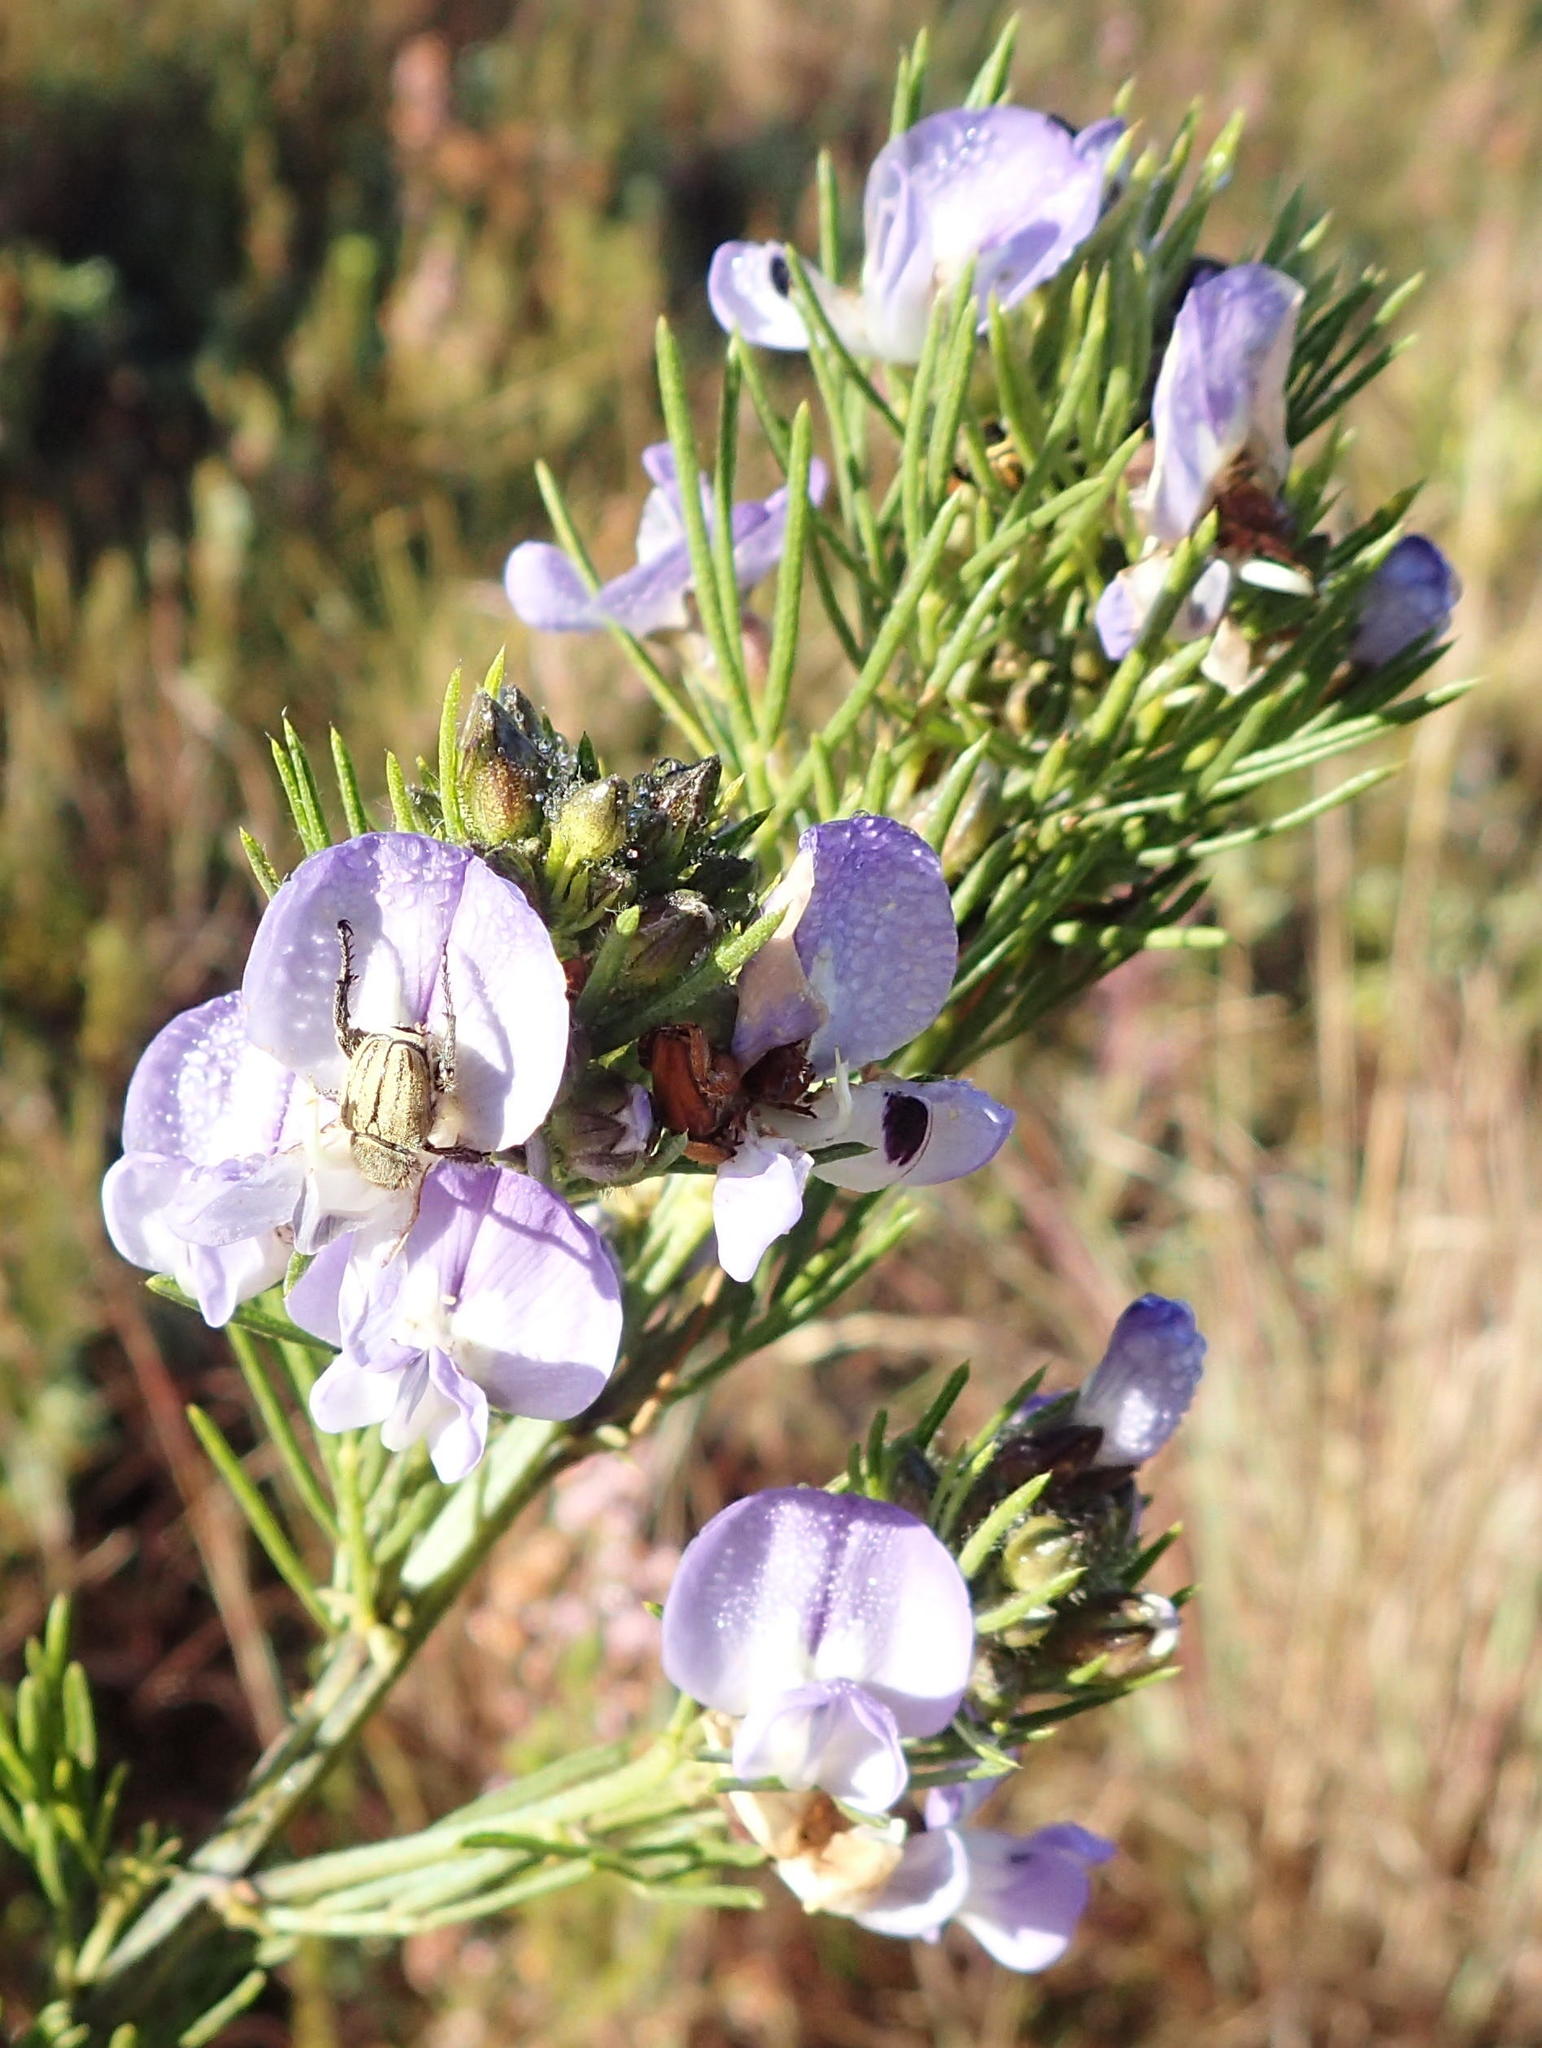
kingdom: Plantae
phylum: Tracheophyta
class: Magnoliopsida
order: Fabales
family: Fabaceae
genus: Psoralea
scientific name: Psoralea affinis
